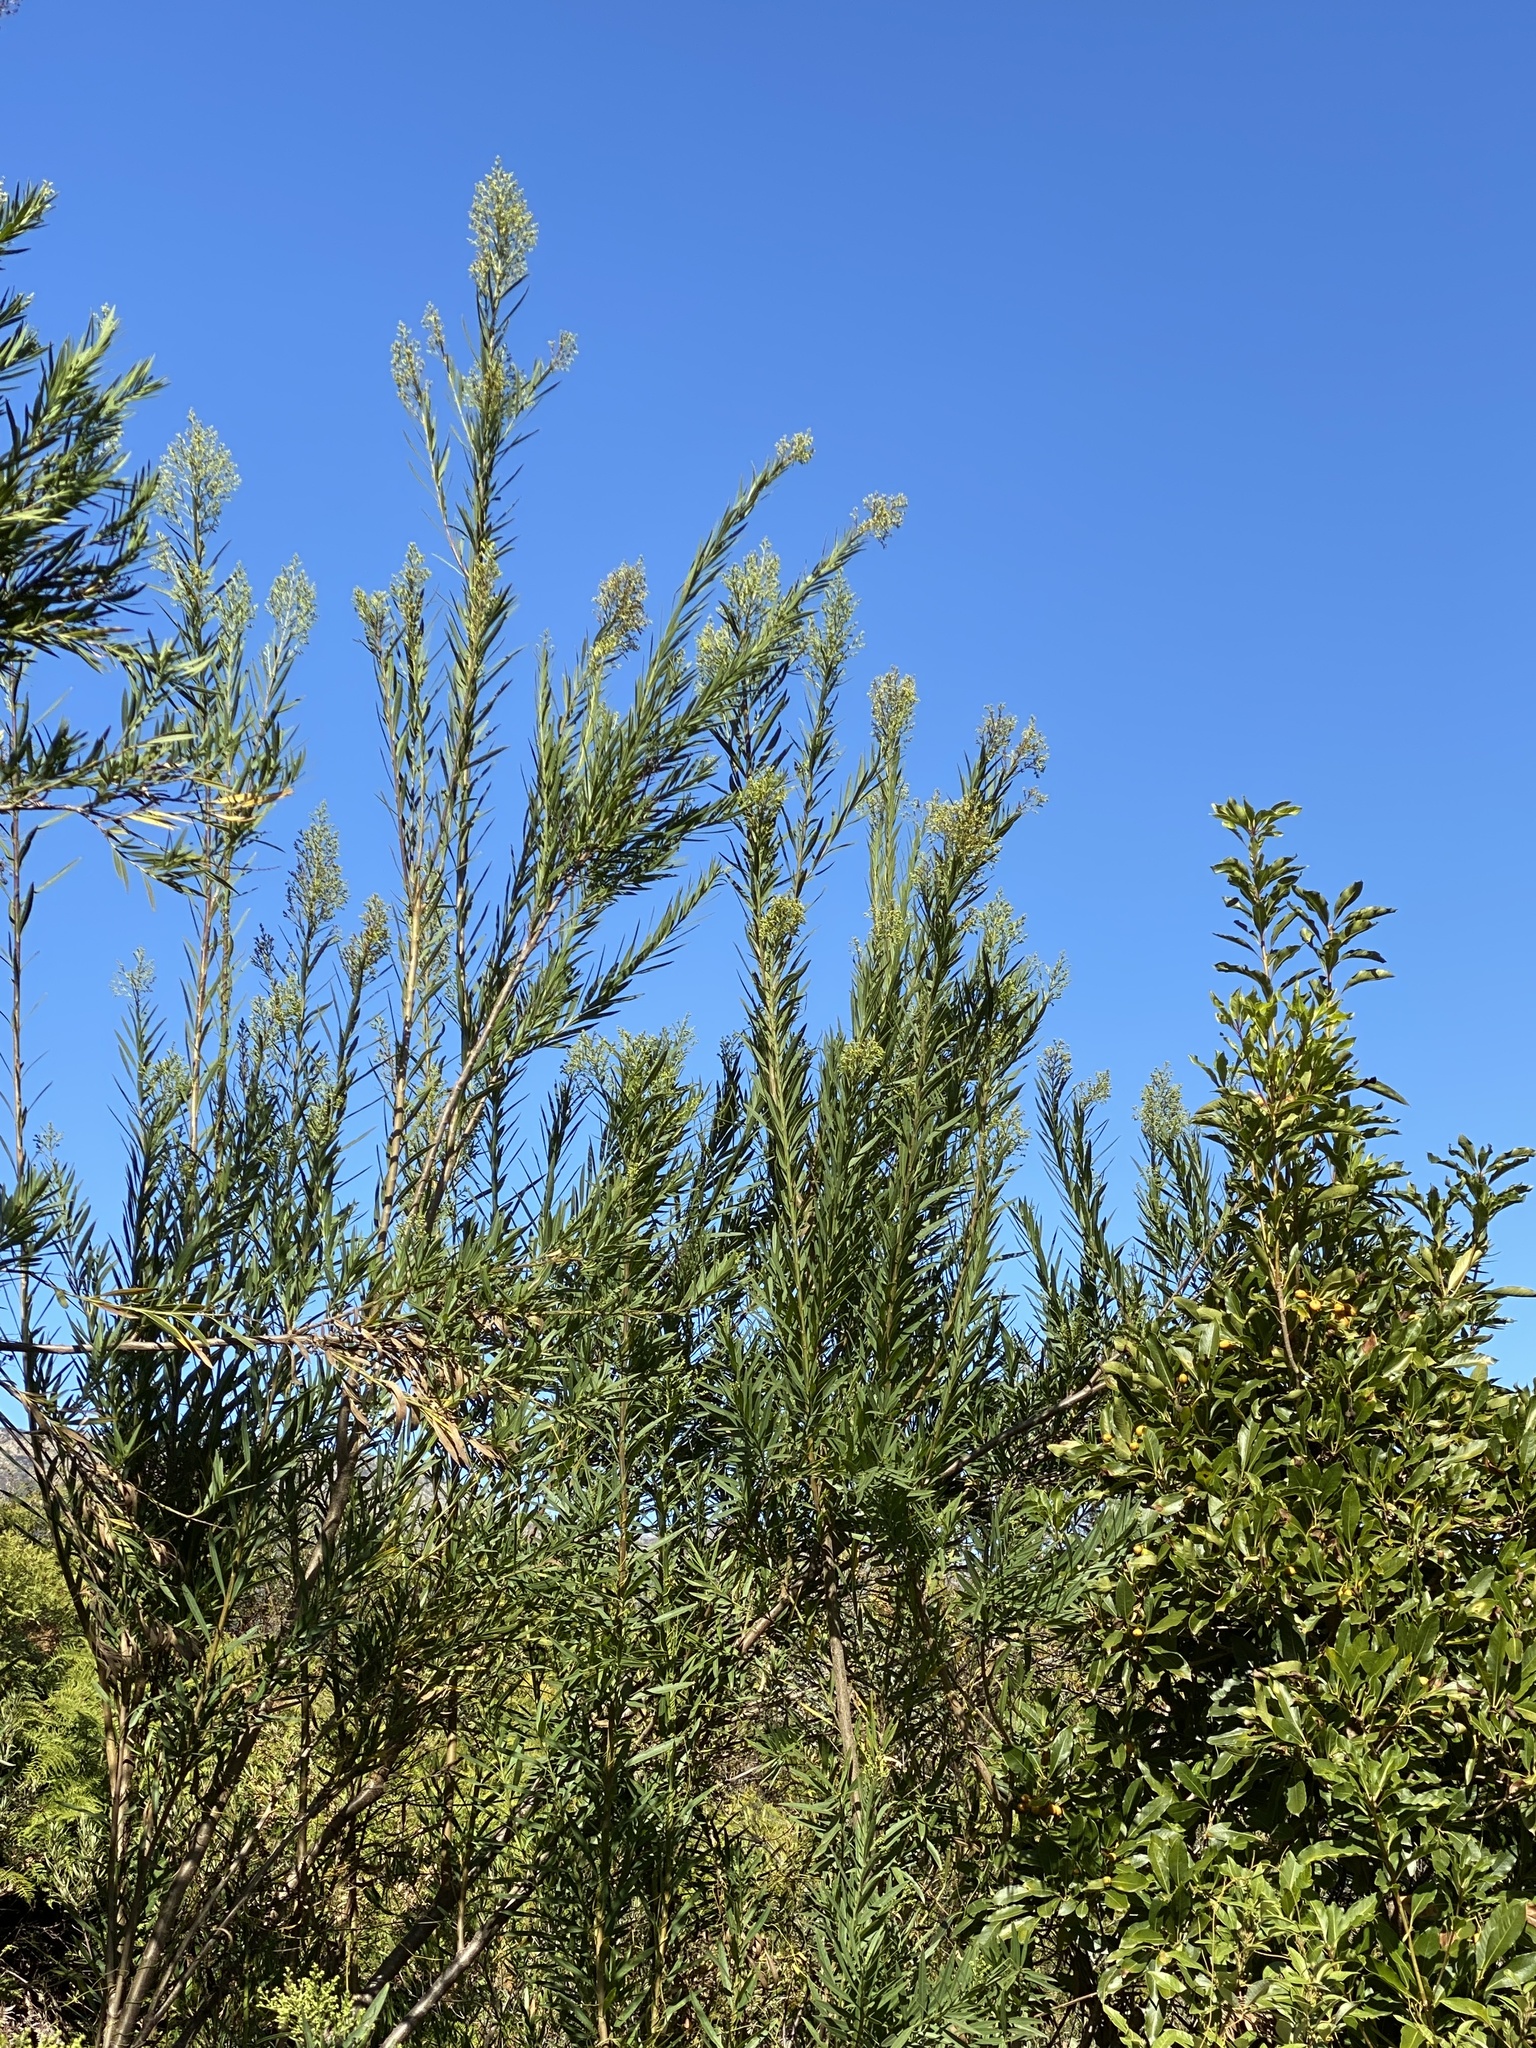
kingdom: Plantae
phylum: Tracheophyta
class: Magnoliopsida
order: Lamiales
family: Scrophulariaceae
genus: Freylinia
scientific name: Freylinia lanceolata
